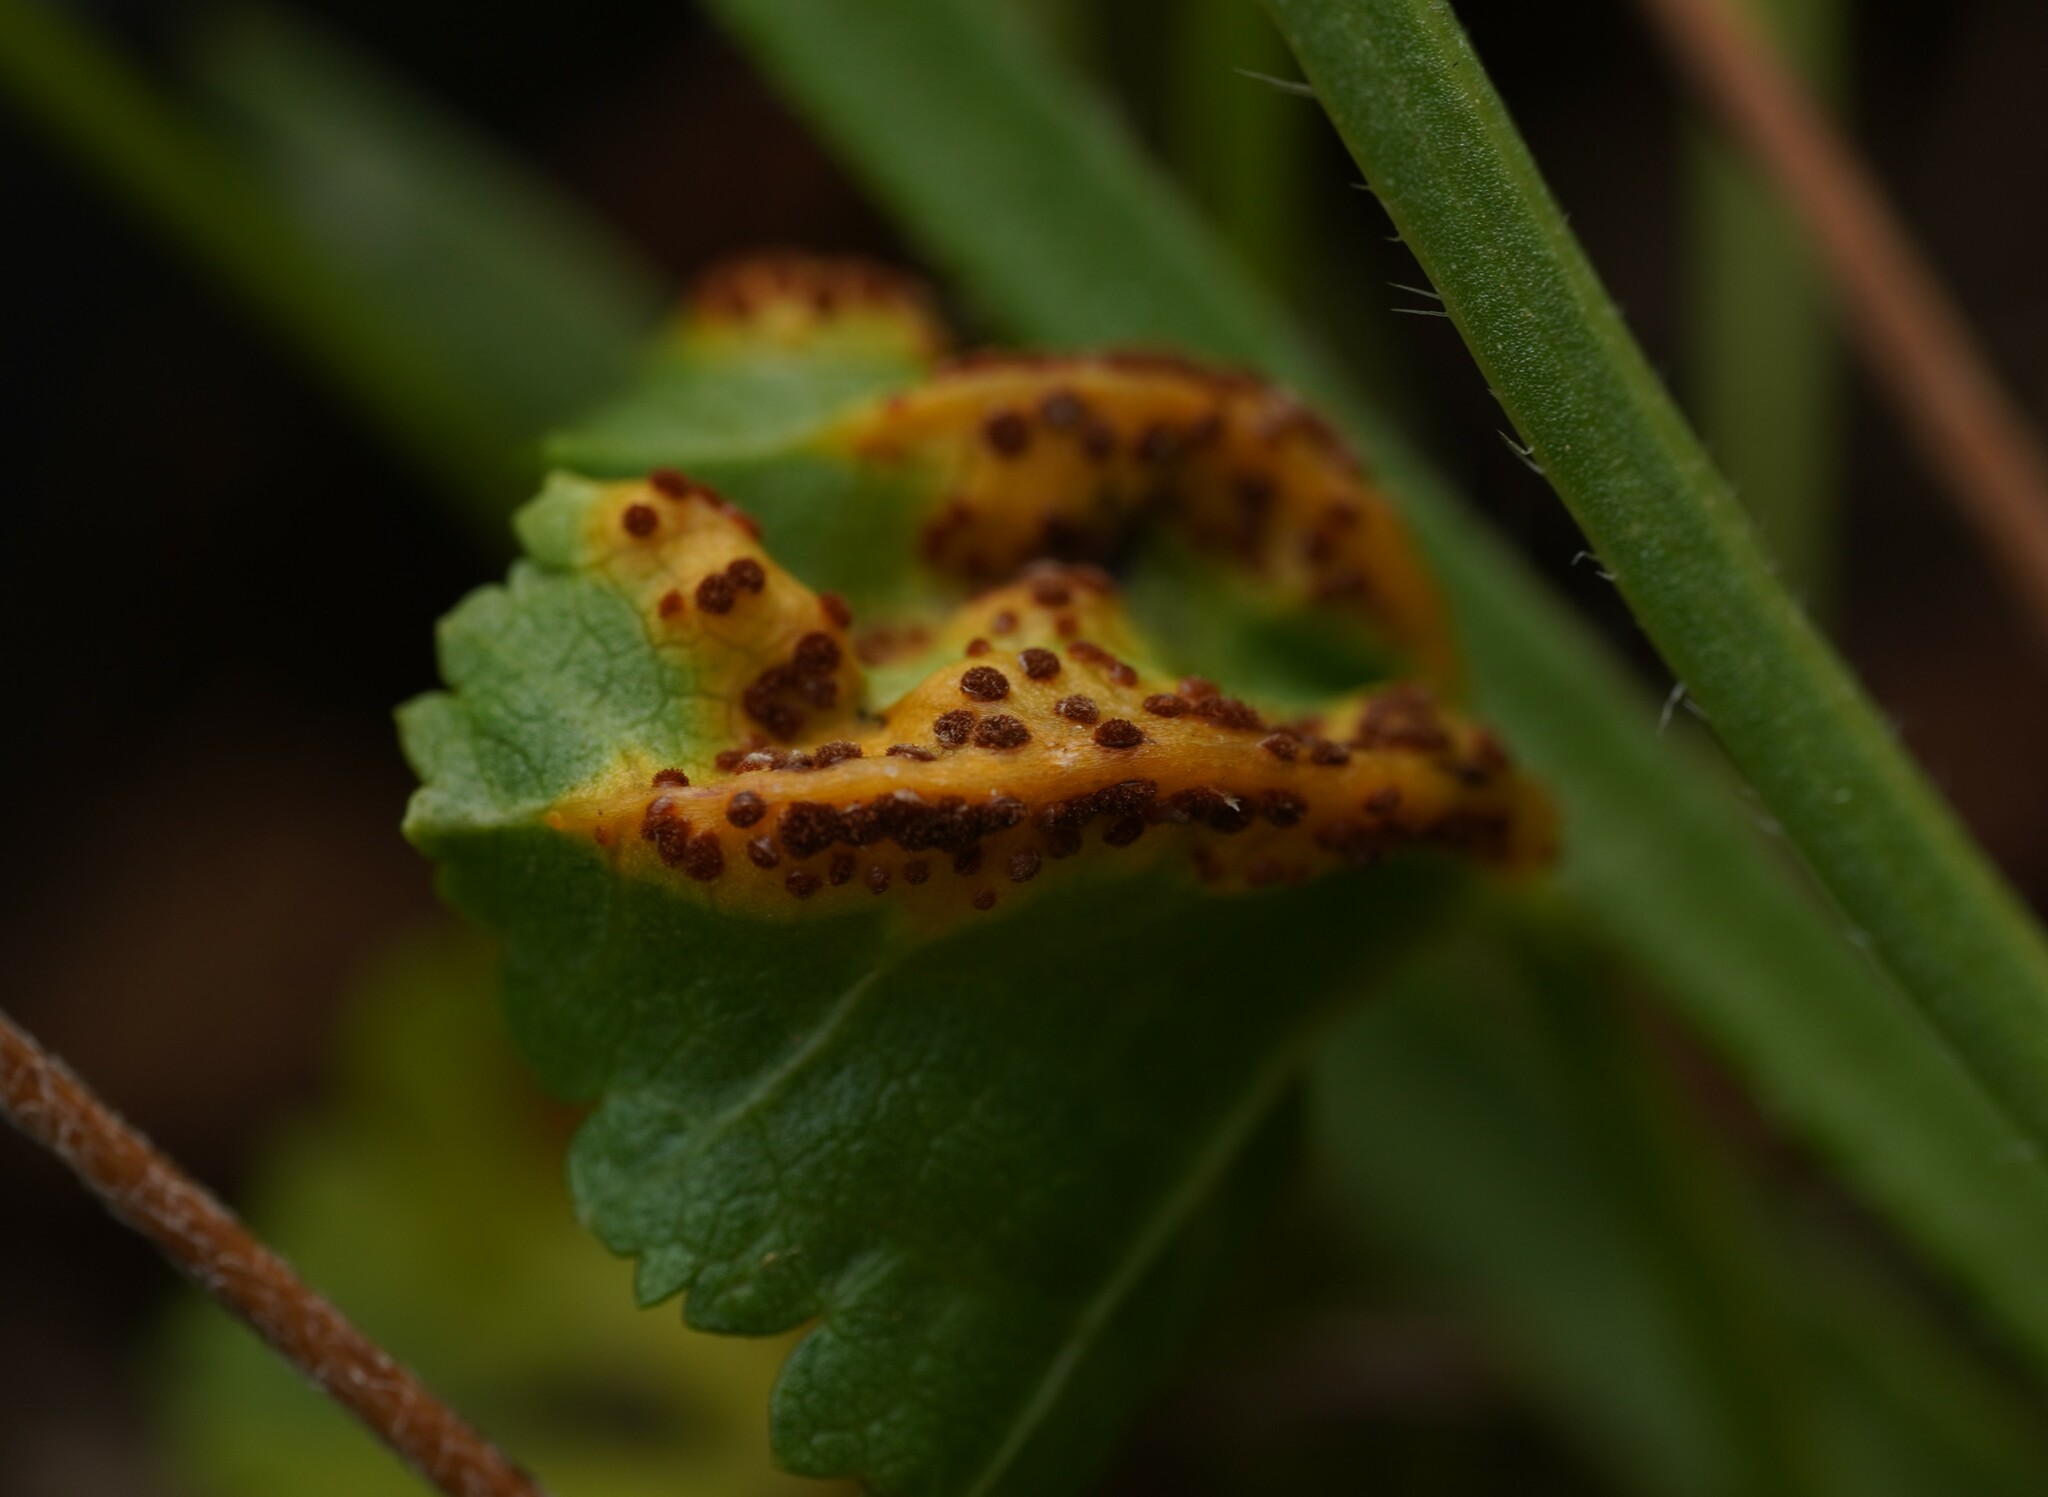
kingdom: Fungi
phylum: Basidiomycota
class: Pucciniomycetes
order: Pucciniales
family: Pucciniaceae
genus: Puccinia
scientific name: Puccinia malvacearum
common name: Hollyhock rust
